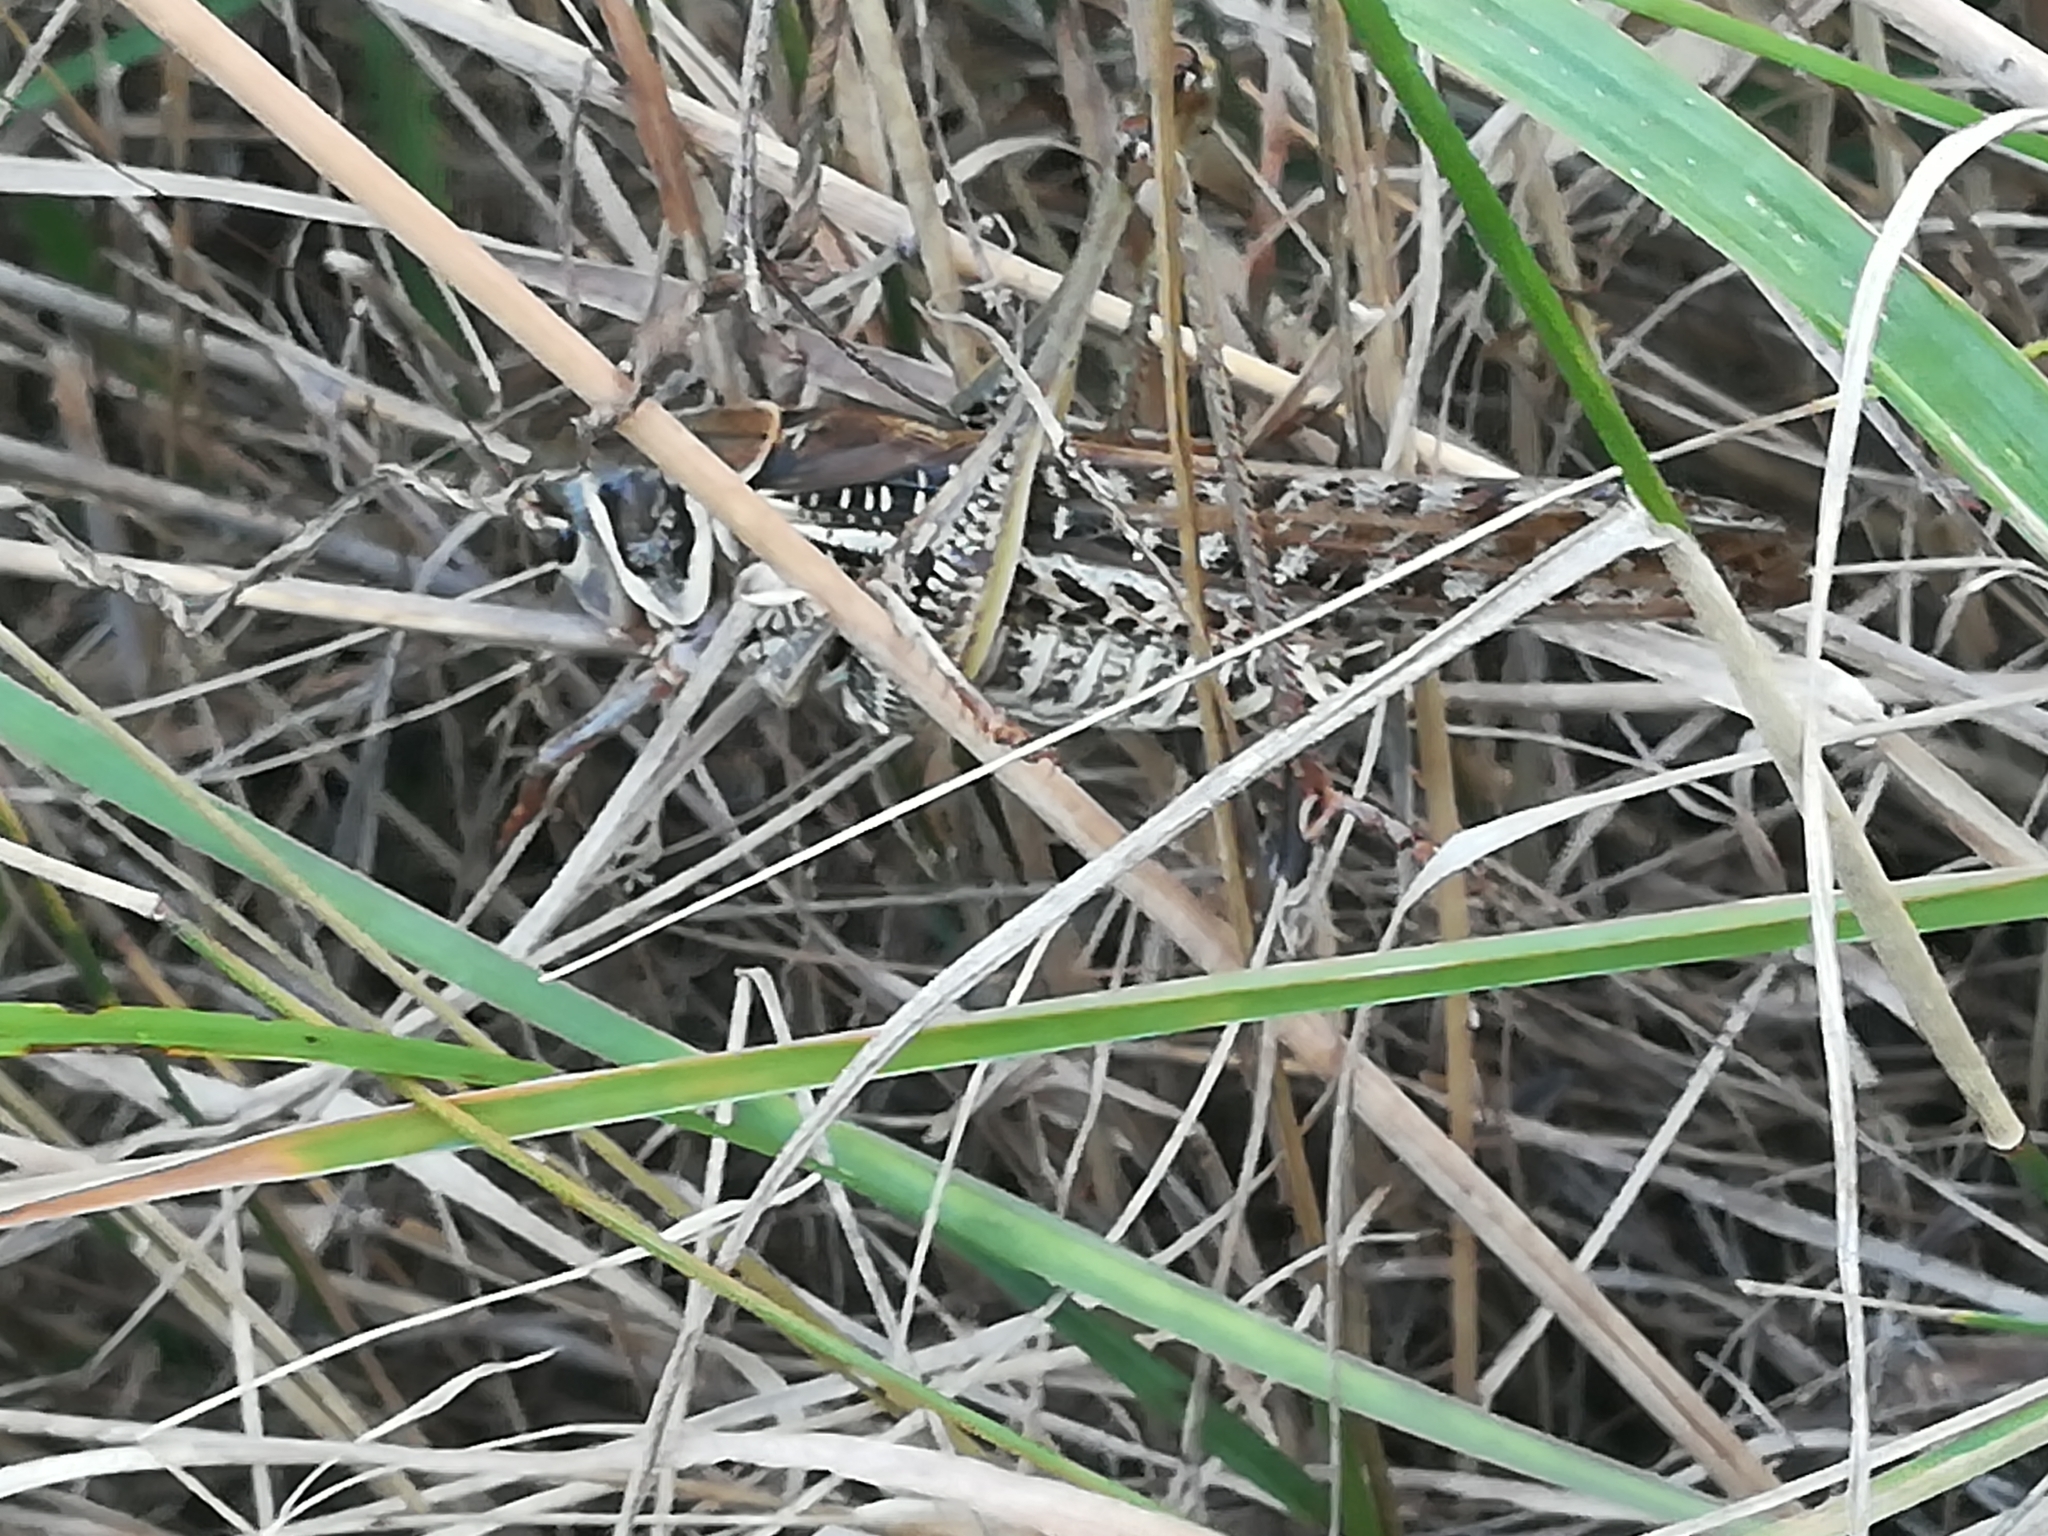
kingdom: Animalia
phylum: Arthropoda
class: Insecta
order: Orthoptera
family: Tettigoniidae
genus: Decticus
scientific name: Decticus albifrons
